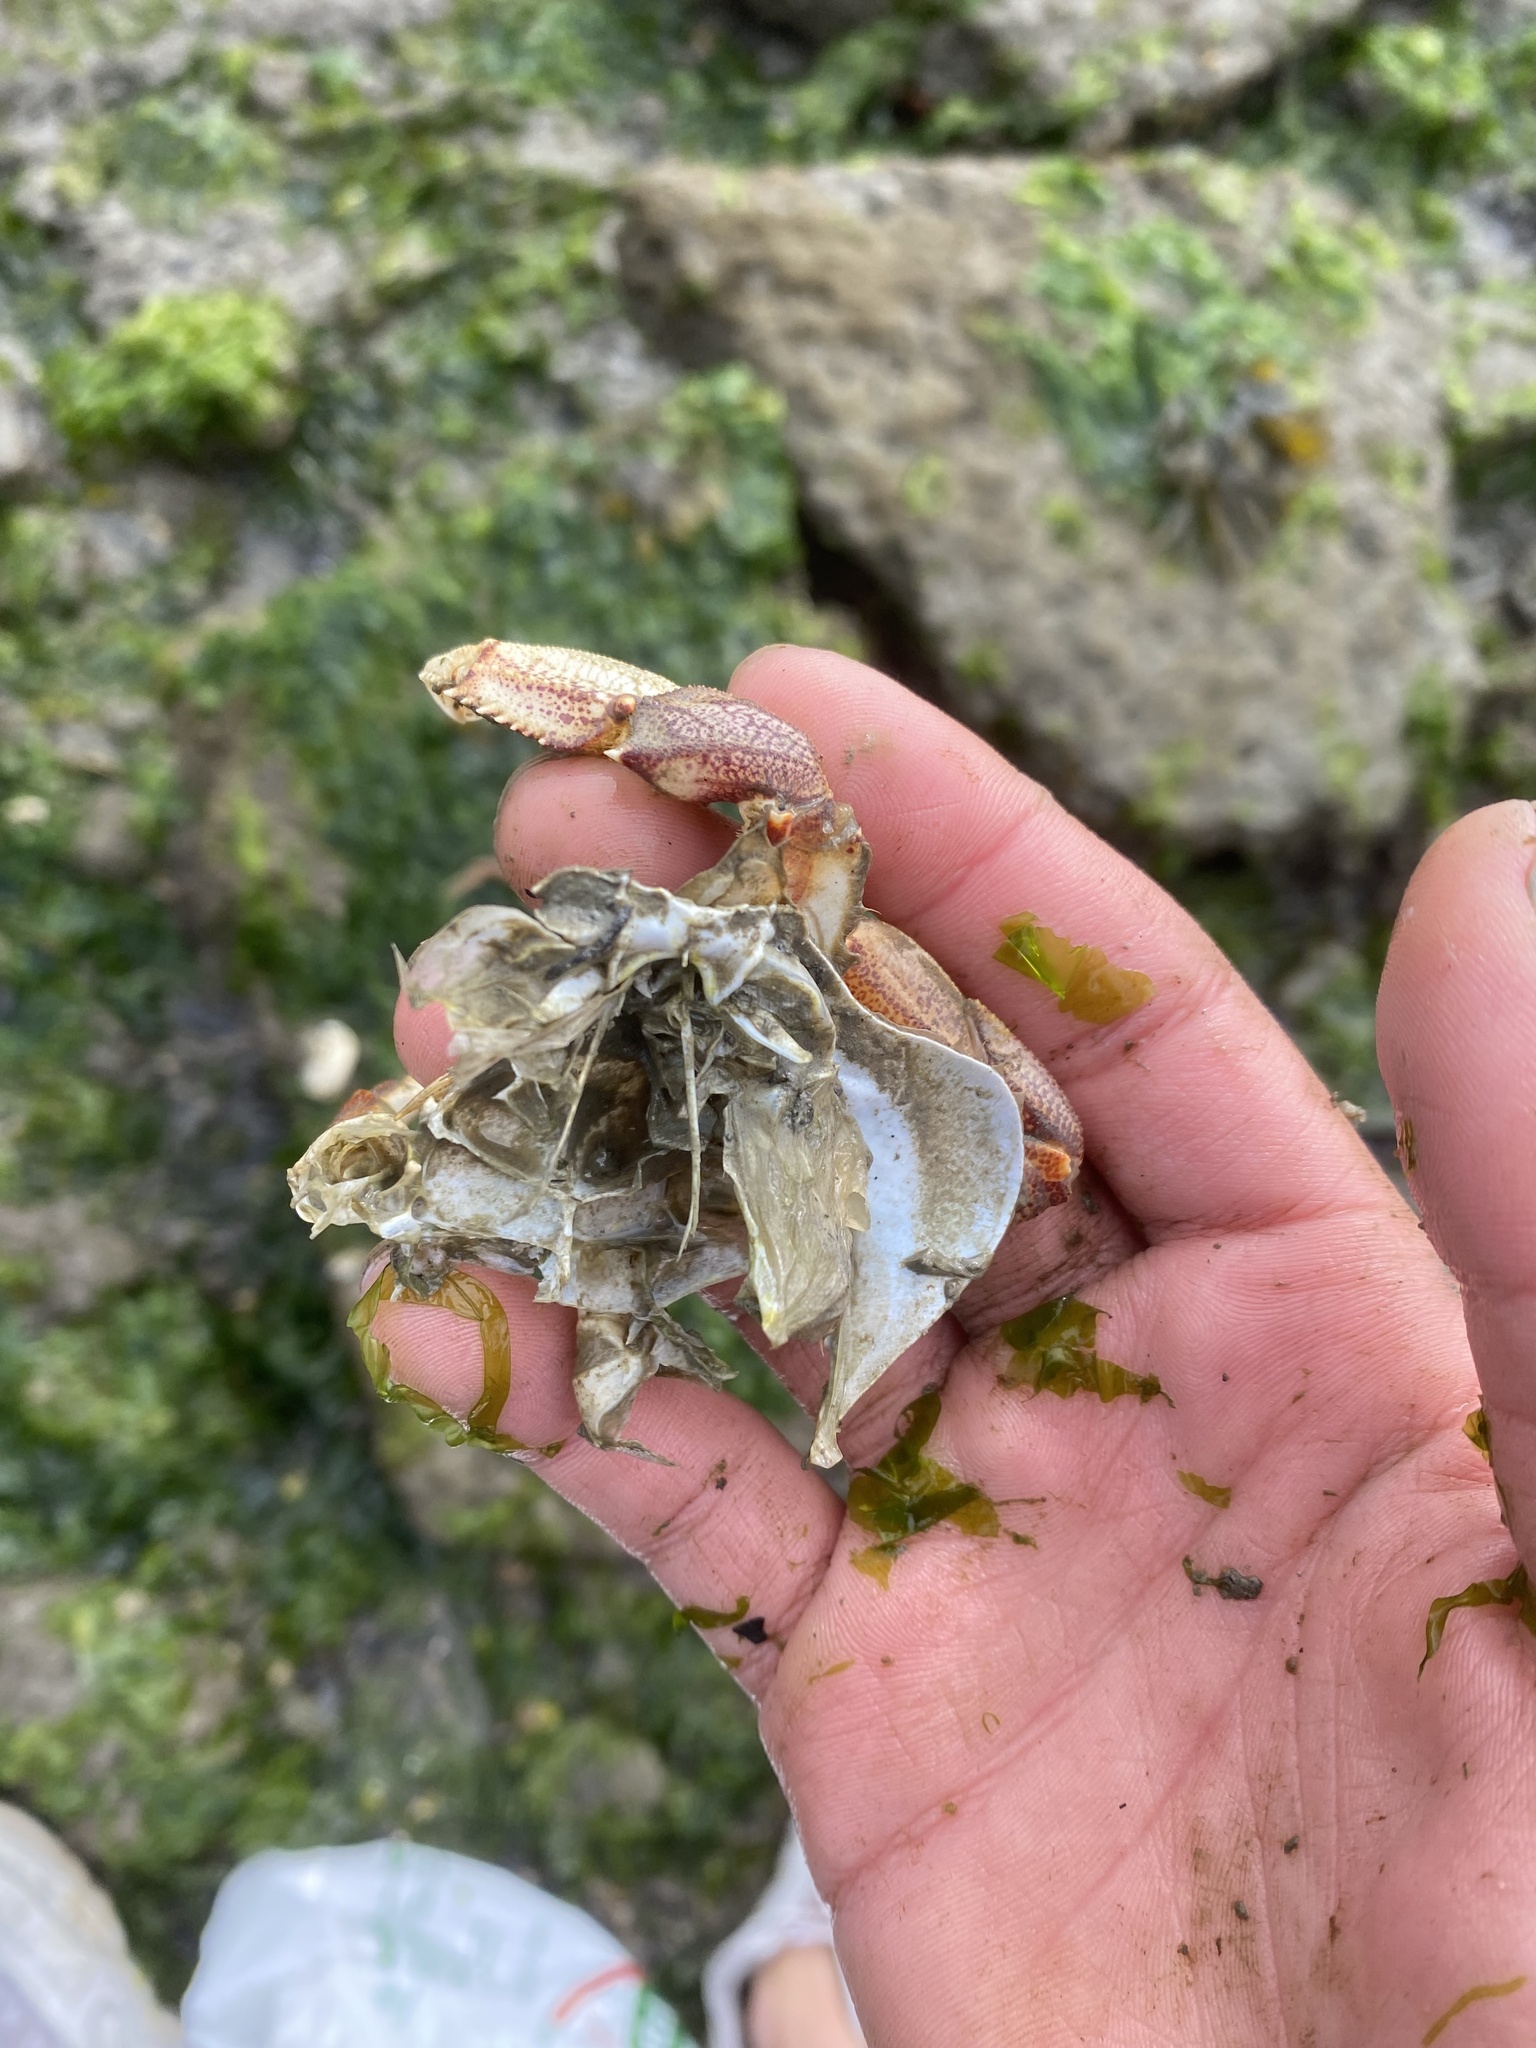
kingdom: Animalia
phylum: Arthropoda
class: Malacostraca
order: Decapoda
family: Cancridae
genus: Metacarcinus
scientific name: Metacarcinus magister
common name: Californian crab
